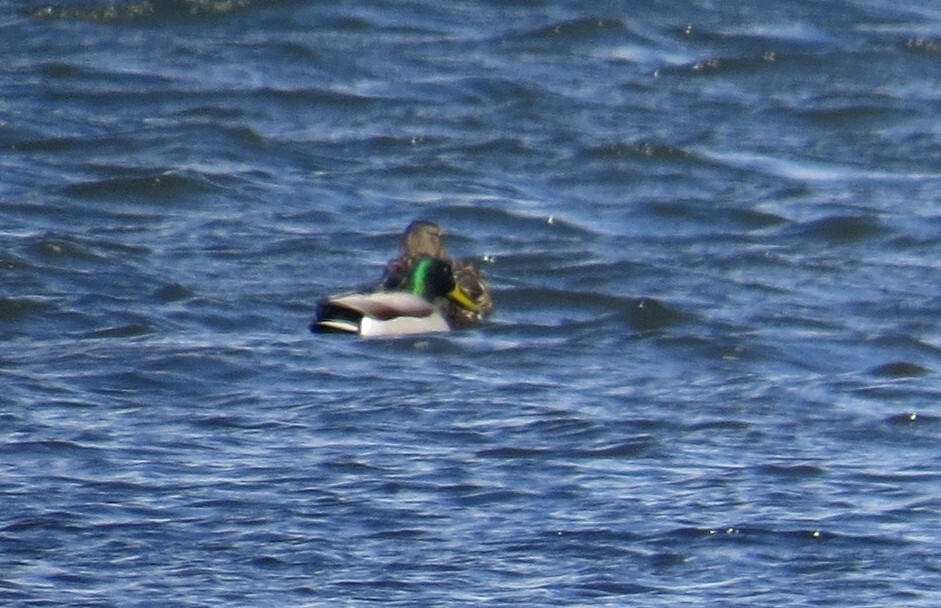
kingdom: Animalia
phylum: Chordata
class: Aves
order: Anseriformes
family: Anatidae
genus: Anas
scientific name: Anas platyrhynchos
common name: Mallard
